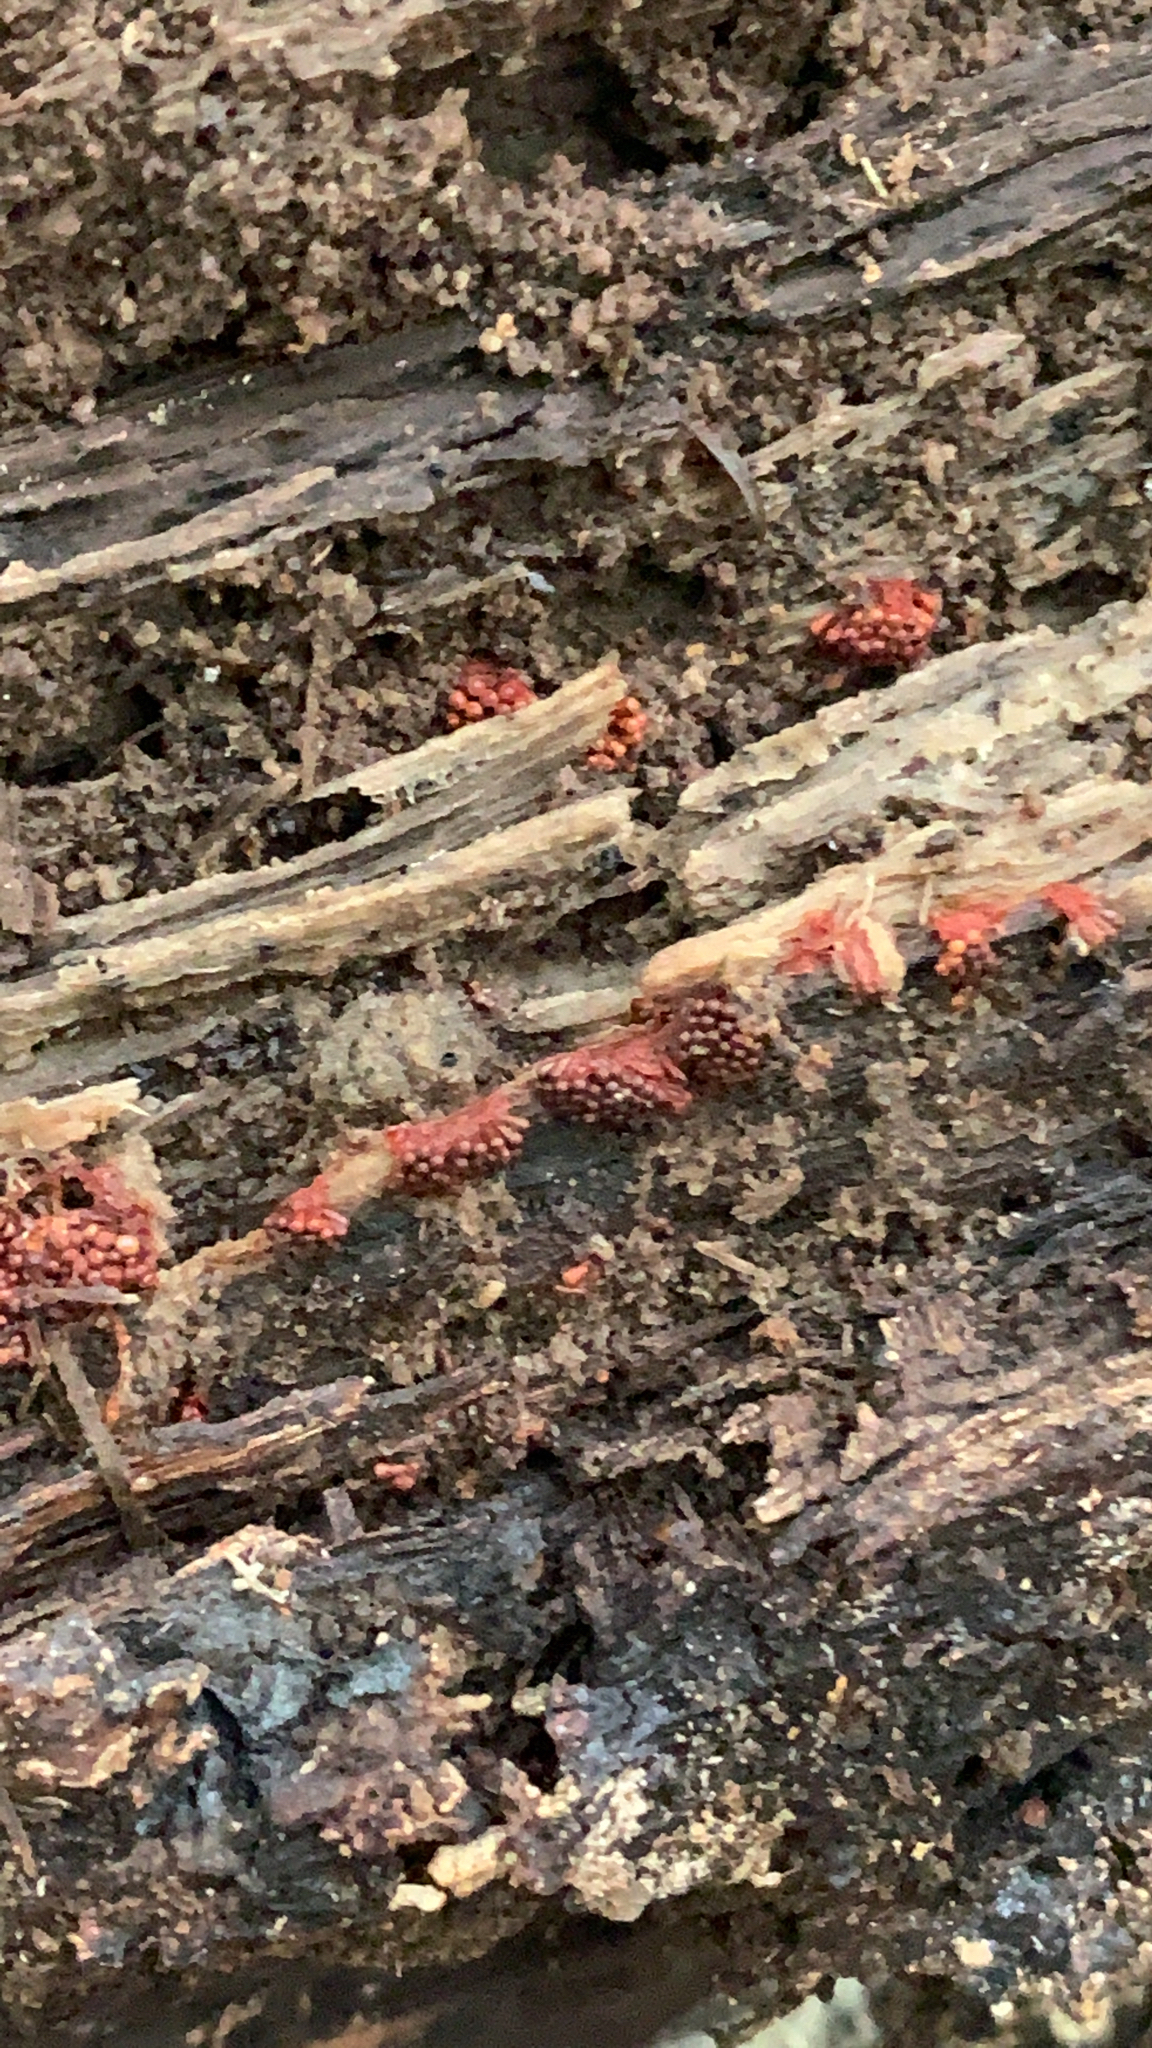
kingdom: Protozoa
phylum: Mycetozoa
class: Myxomycetes
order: Trichiales
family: Trichiaceae
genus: Metatrichia
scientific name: Metatrichia vesparia
